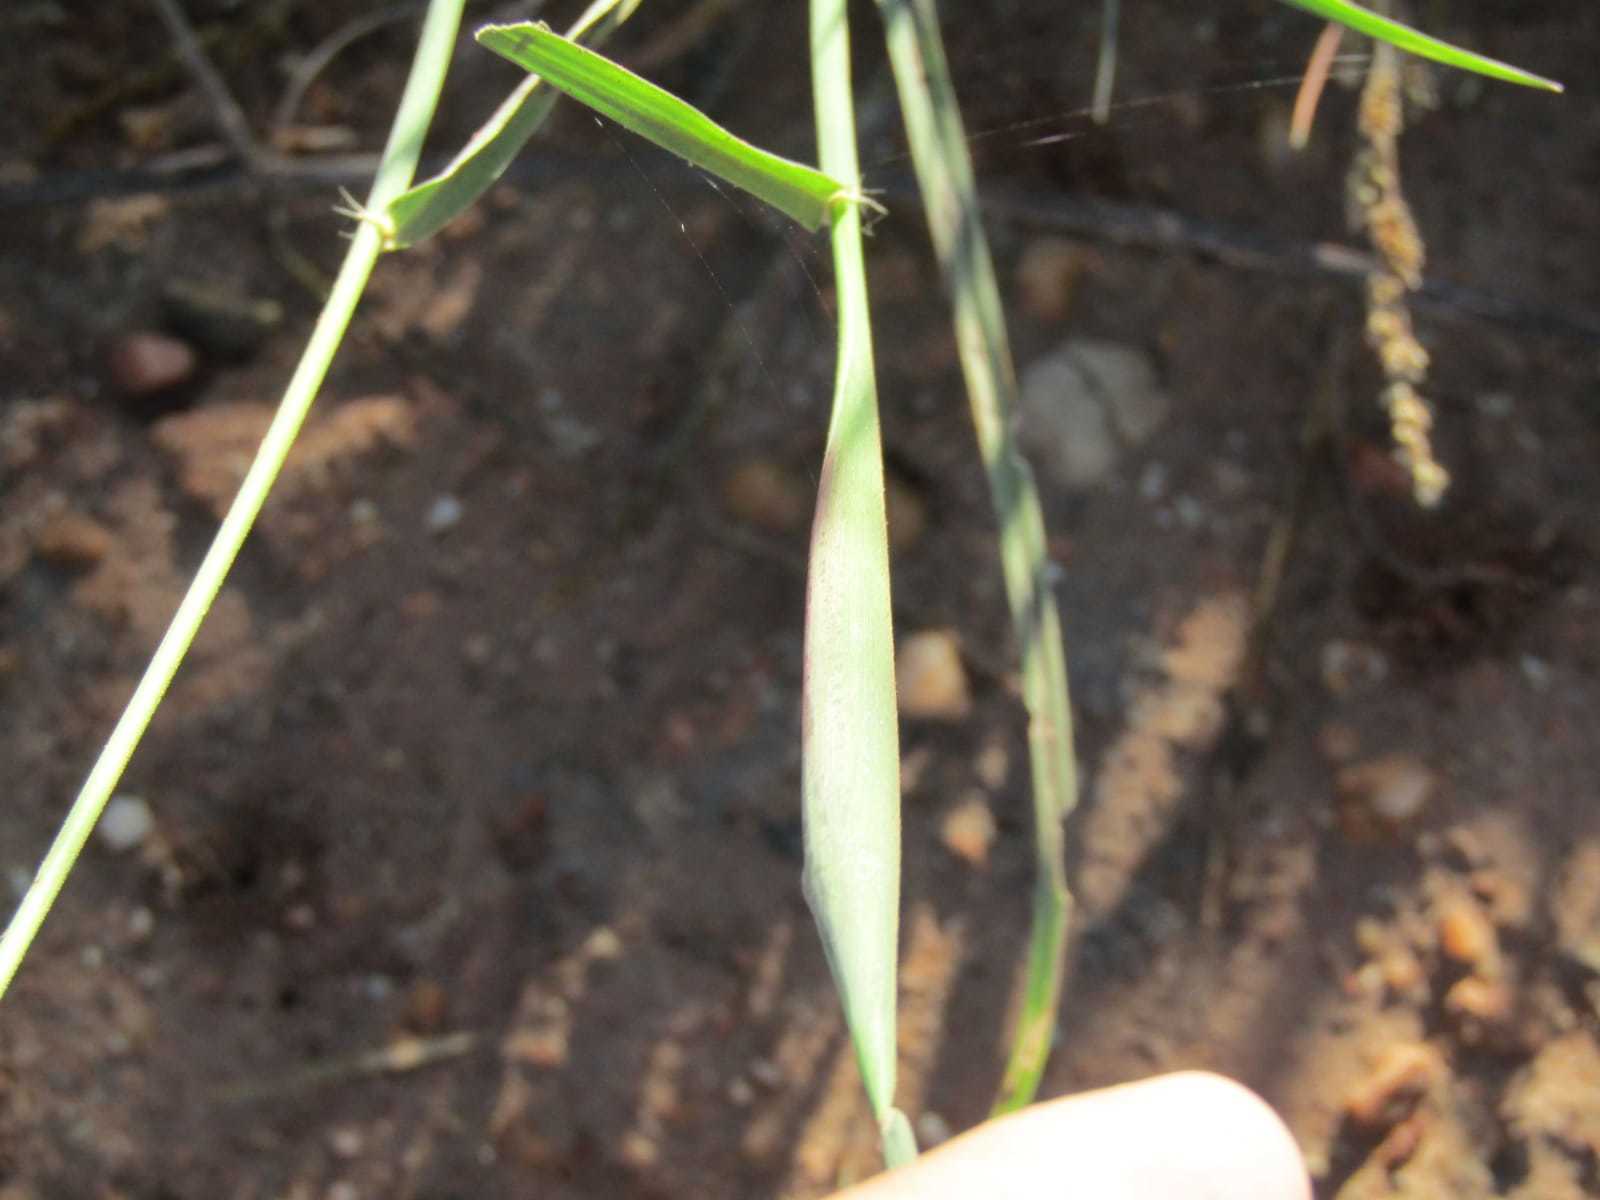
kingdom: Plantae
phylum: Tracheophyta
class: Liliopsida
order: Poales
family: Poaceae
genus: Chloris
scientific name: Chloris virgata
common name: Feathery rhodes-grass
